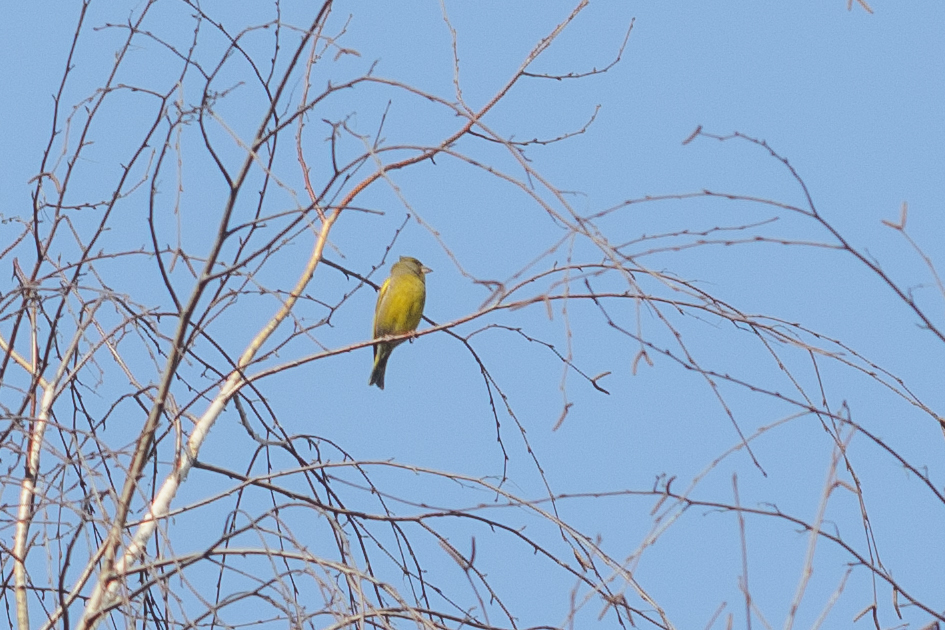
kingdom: Plantae
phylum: Tracheophyta
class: Liliopsida
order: Poales
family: Poaceae
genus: Chloris
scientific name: Chloris chloris
